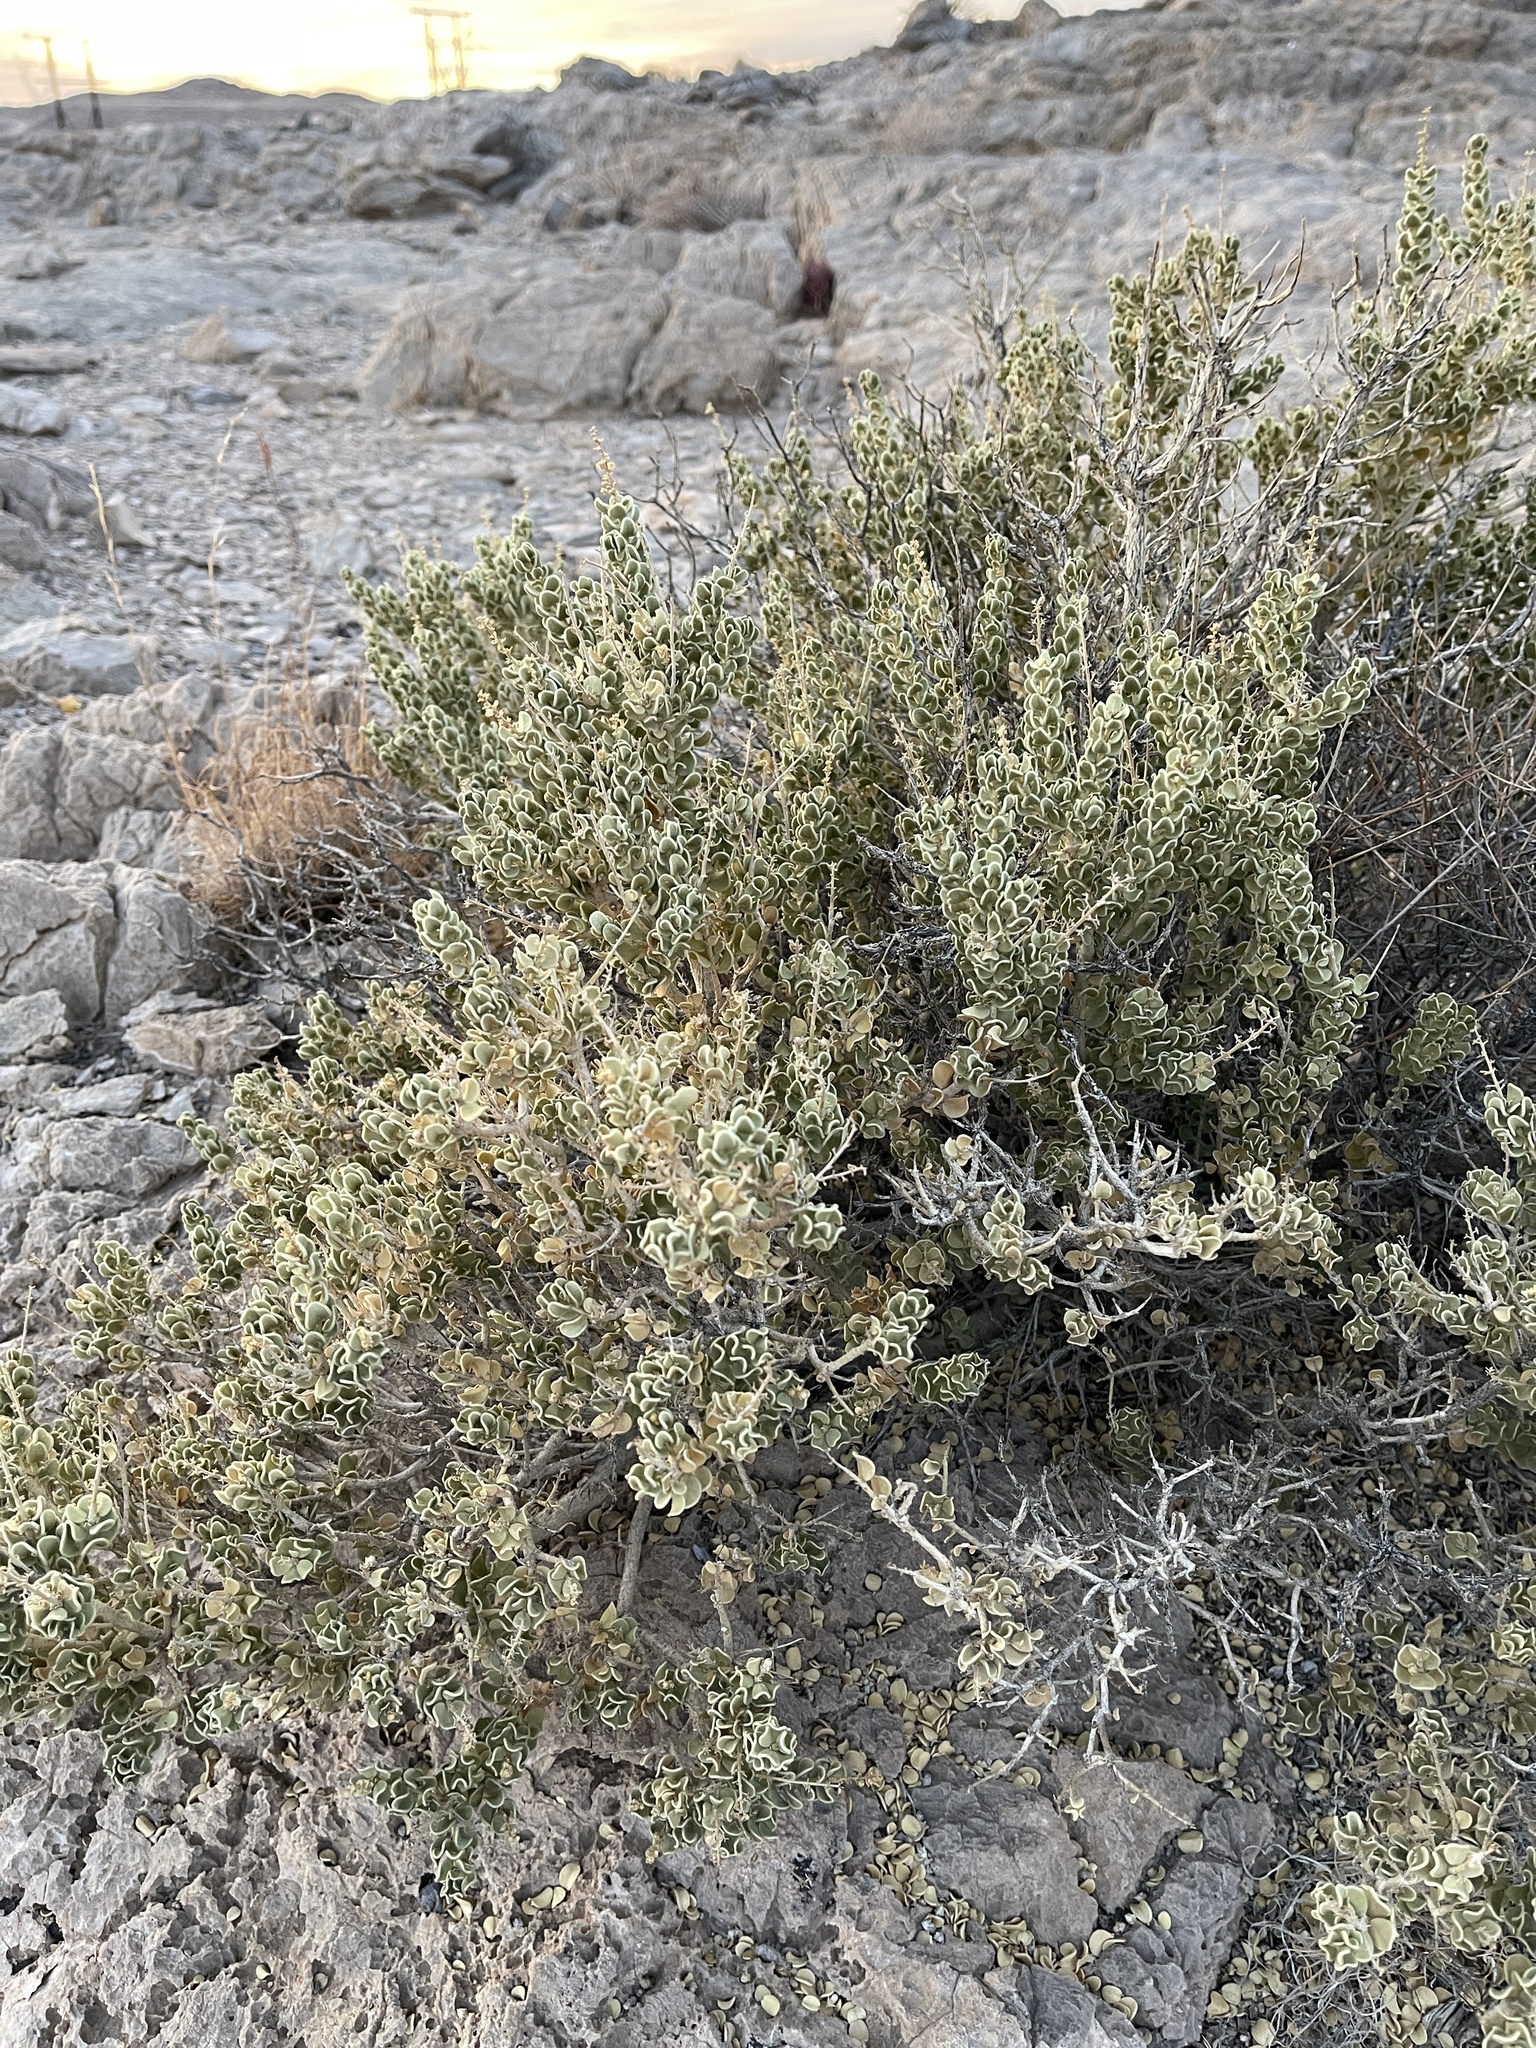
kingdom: Plantae
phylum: Tracheophyta
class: Magnoliopsida
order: Celastrales
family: Celastraceae
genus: Mortonia
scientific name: Mortonia utahensis
